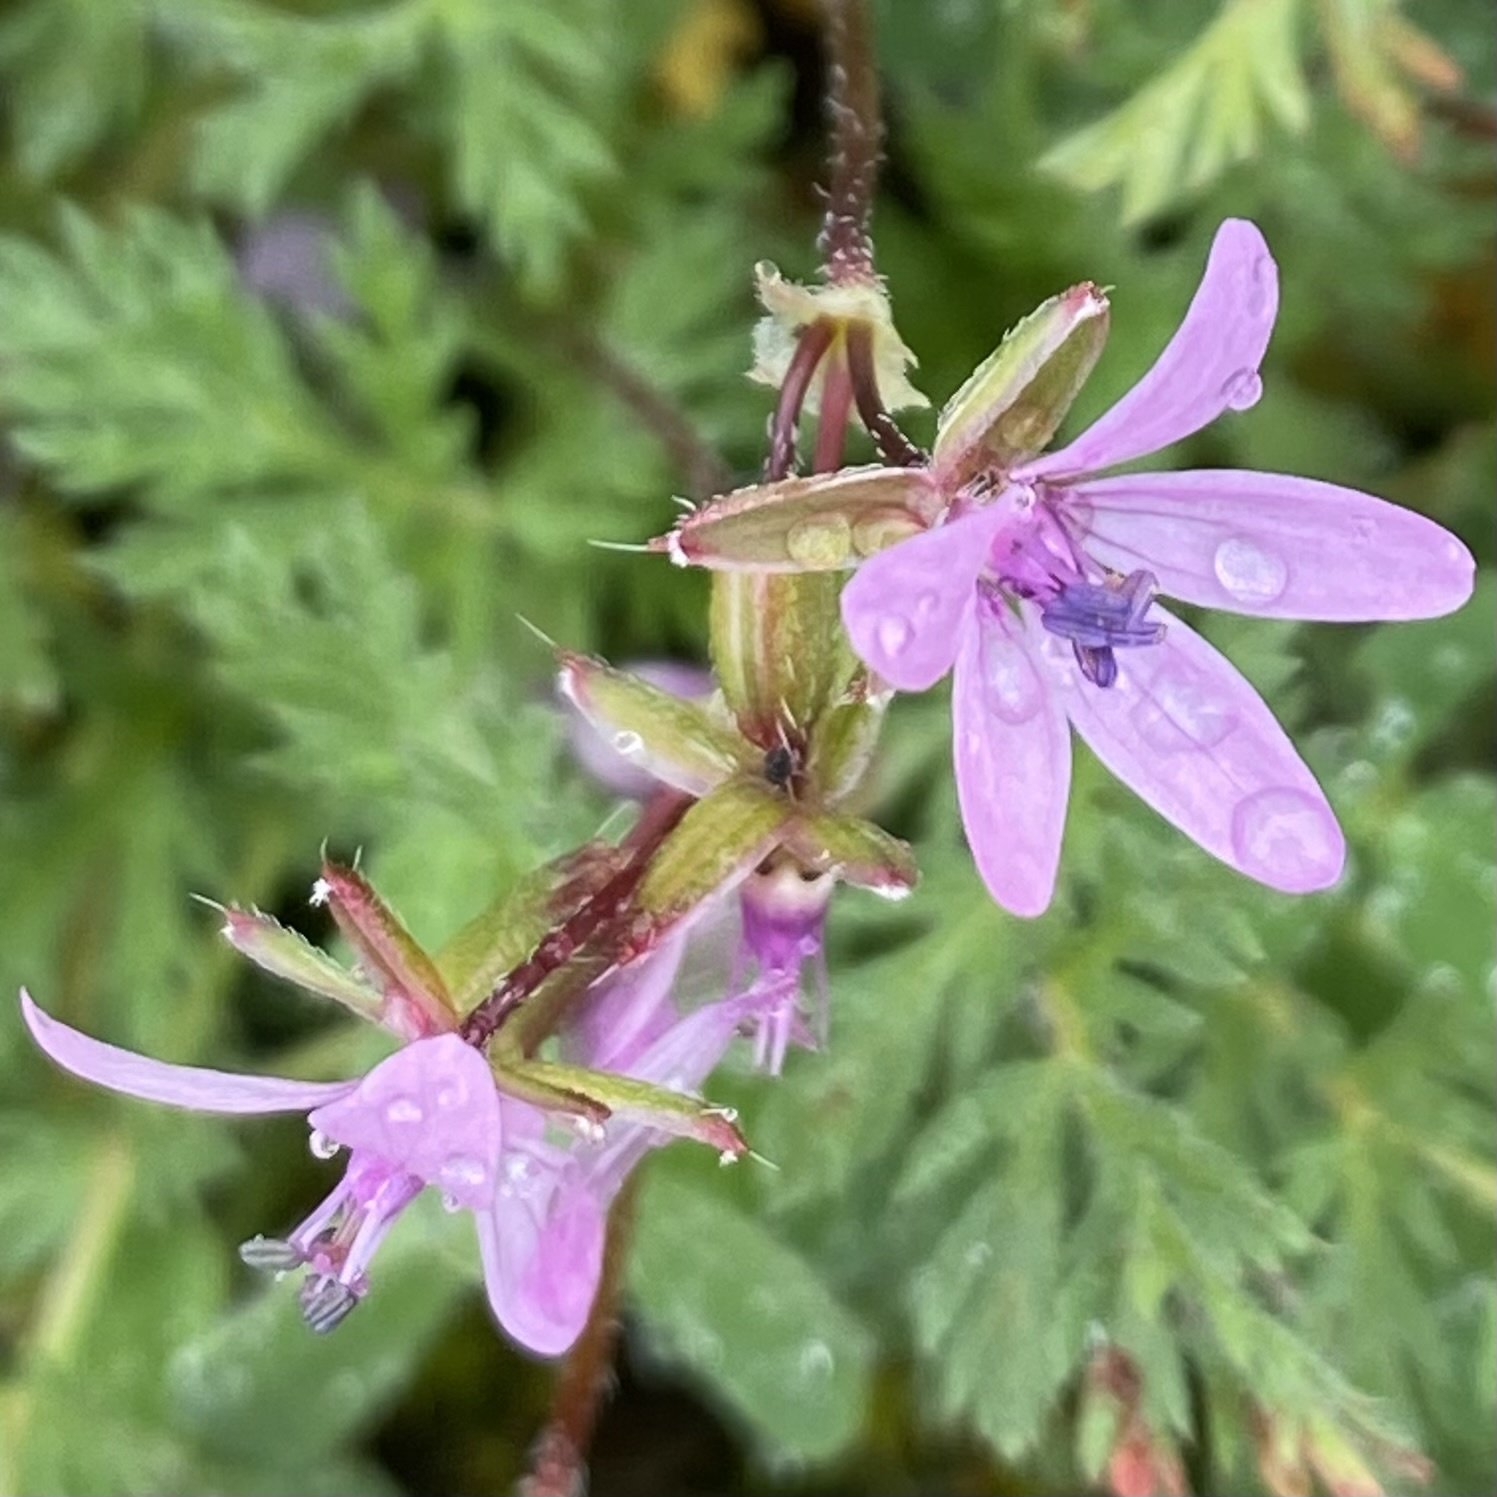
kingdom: Plantae
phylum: Tracheophyta
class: Magnoliopsida
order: Geraniales
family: Geraniaceae
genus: Erodium
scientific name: Erodium cicutarium
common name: Common stork's-bill
